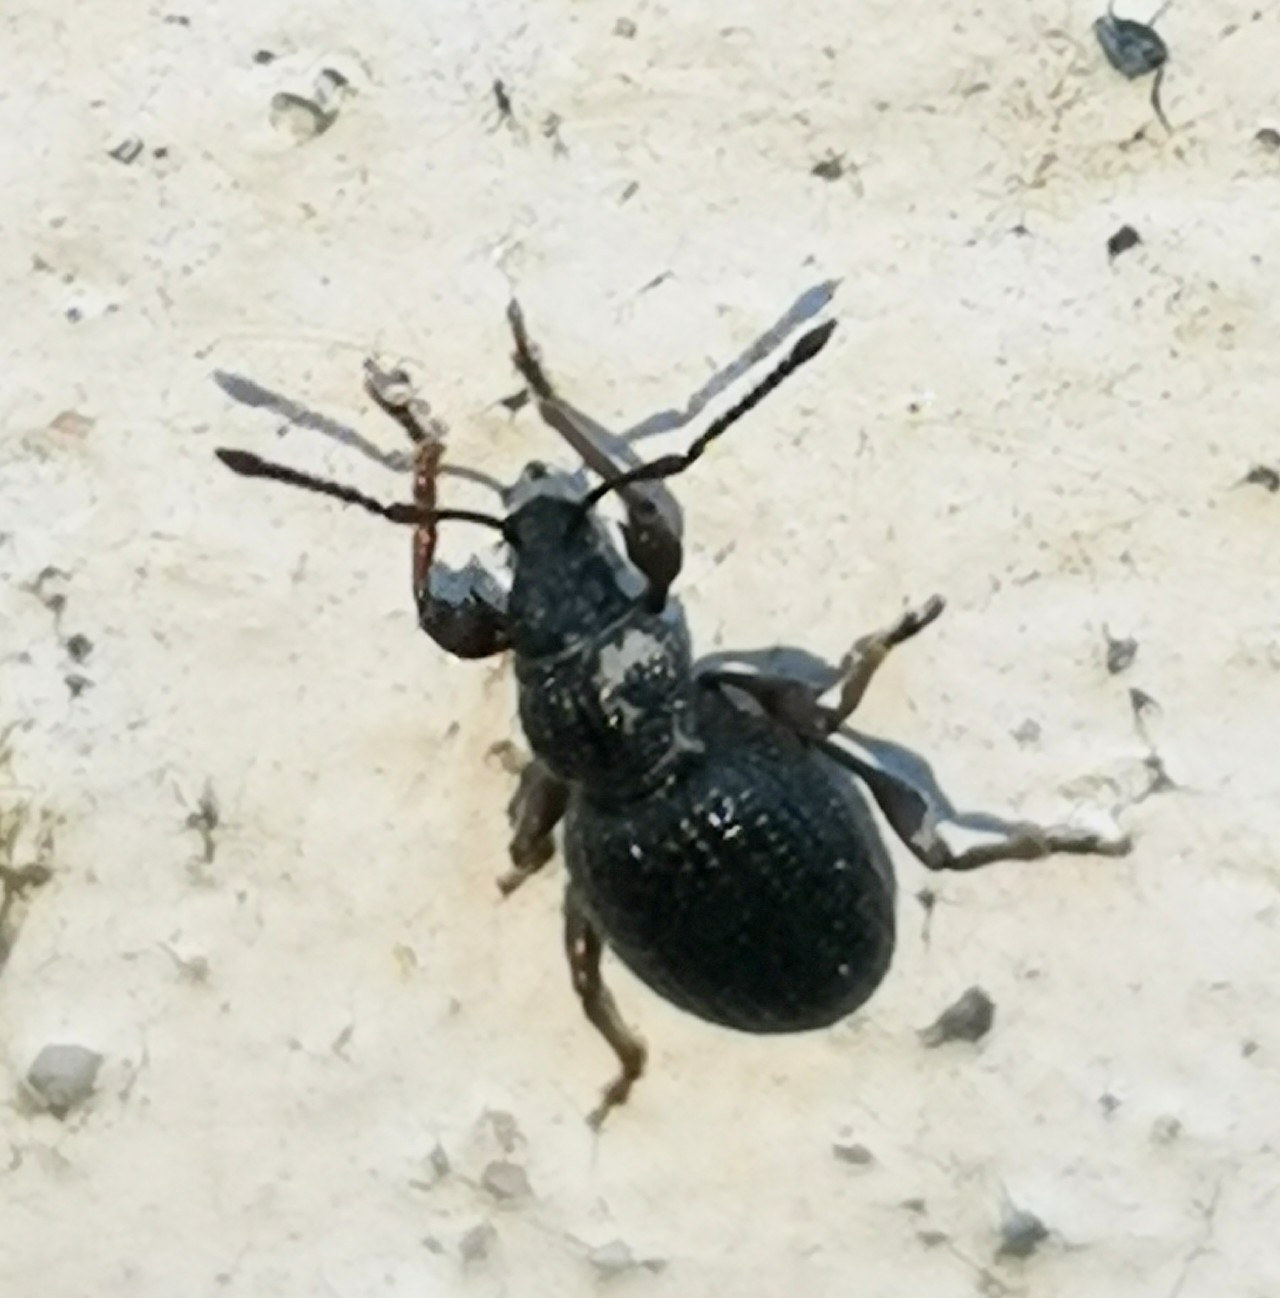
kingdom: Animalia
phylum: Arthropoda
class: Insecta
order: Coleoptera
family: Curculionidae
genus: Otiorhynchus
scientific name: Otiorhynchus ovatus
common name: Strawberry root weevil
